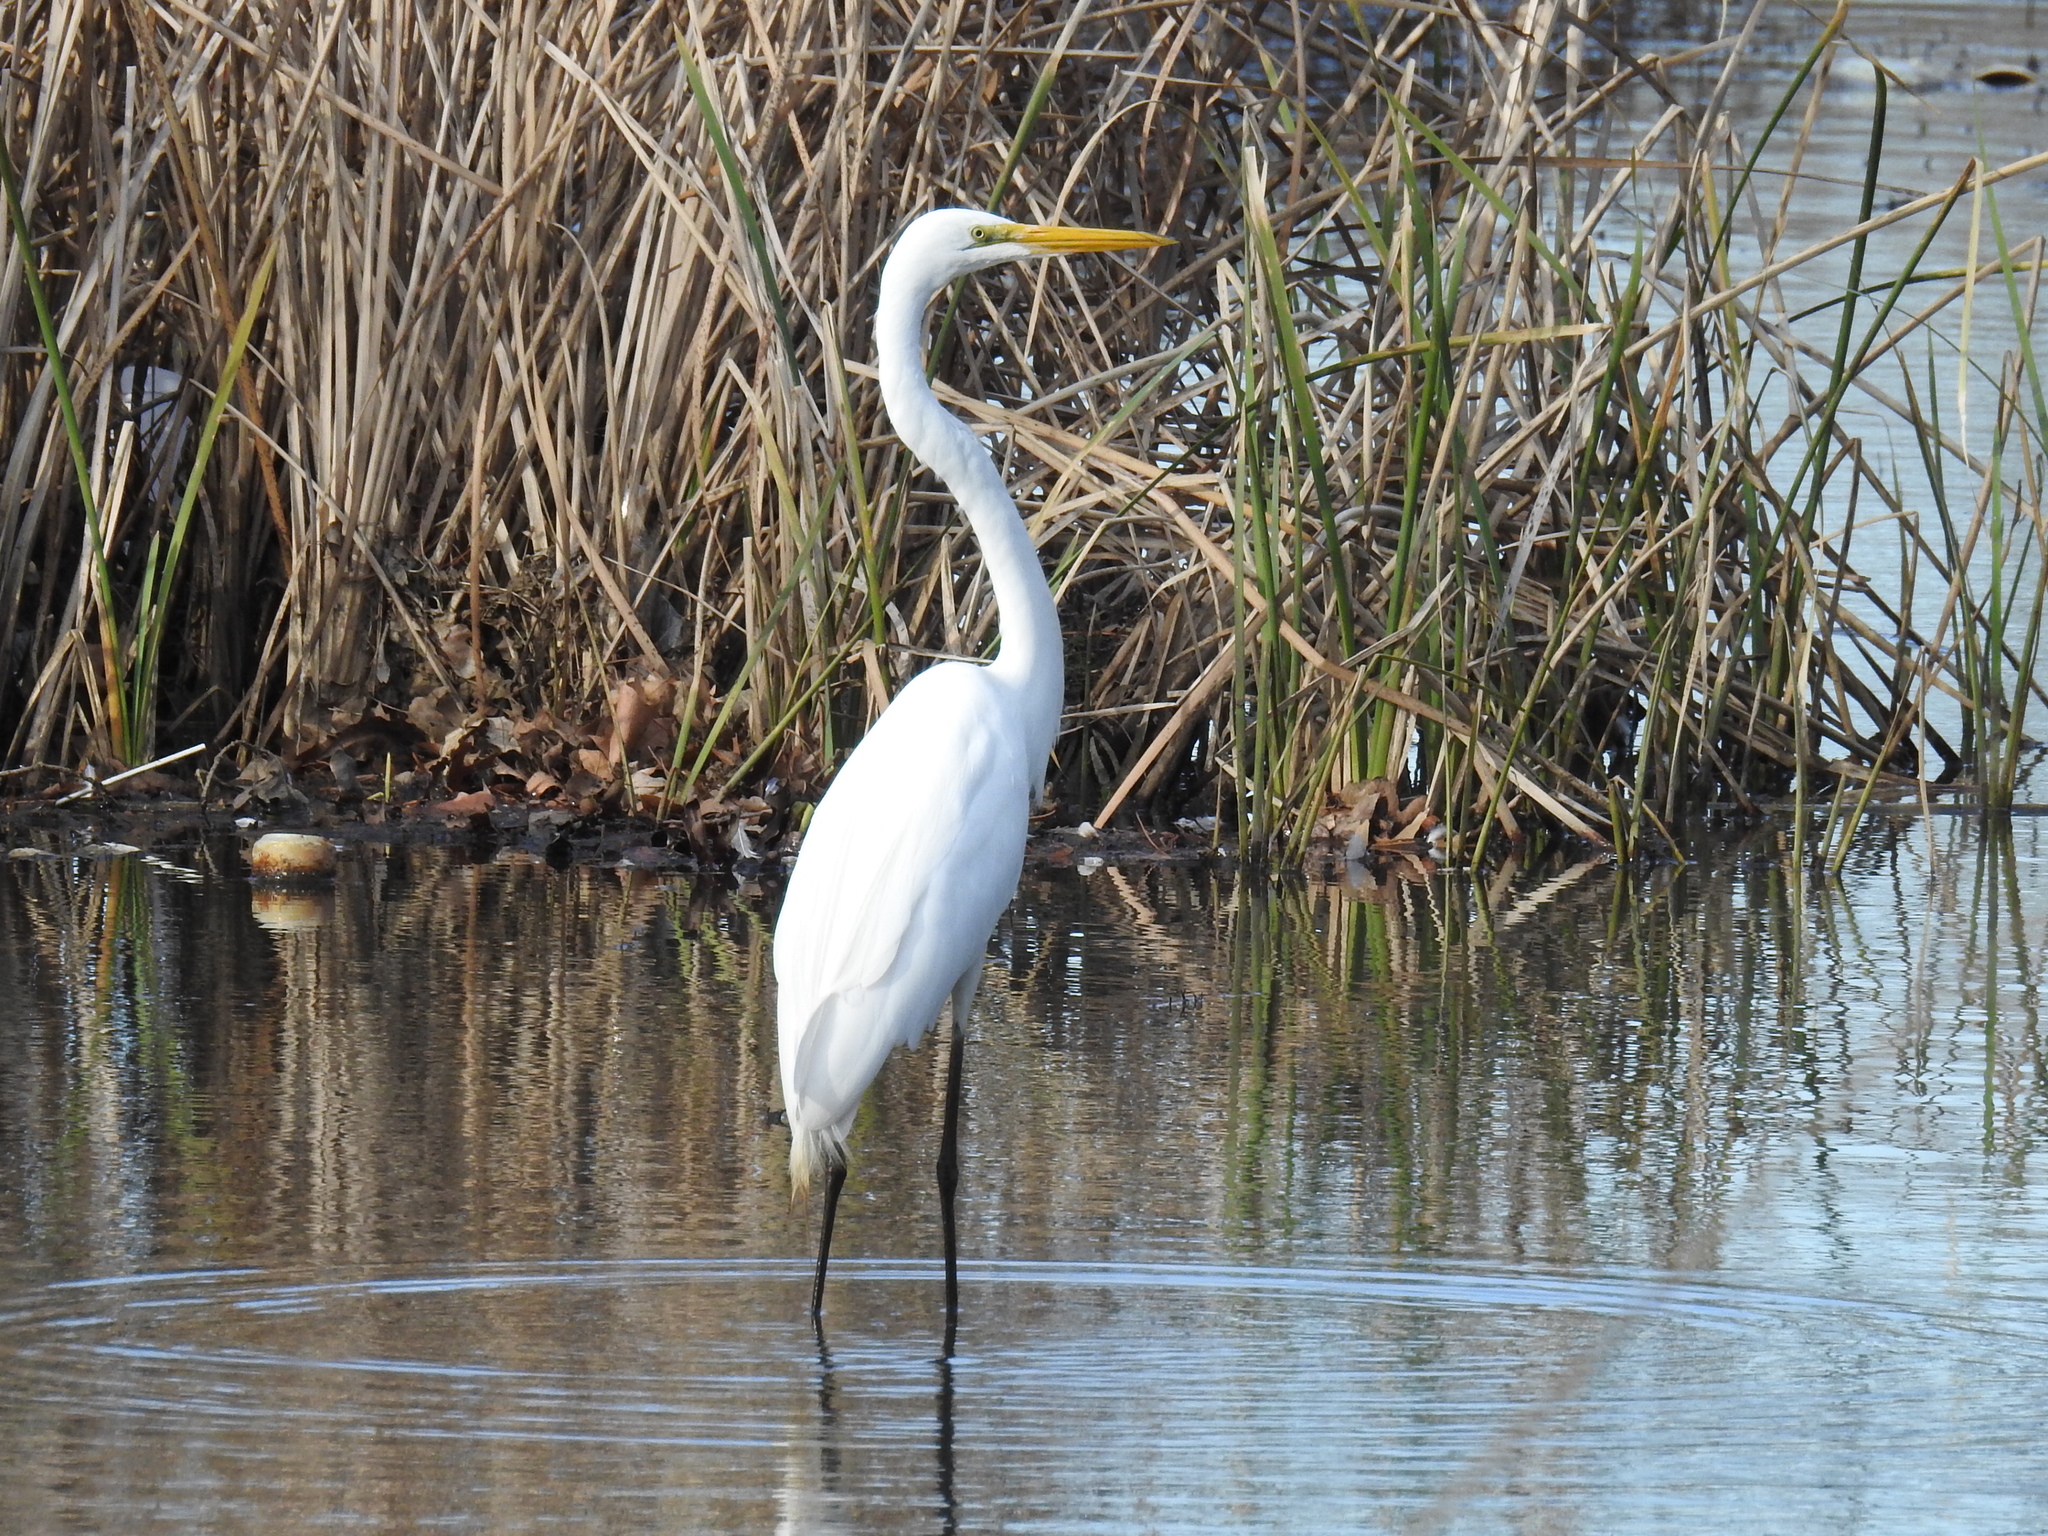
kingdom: Animalia
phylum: Chordata
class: Aves
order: Pelecaniformes
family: Ardeidae
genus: Ardea
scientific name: Ardea alba
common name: Great egret
